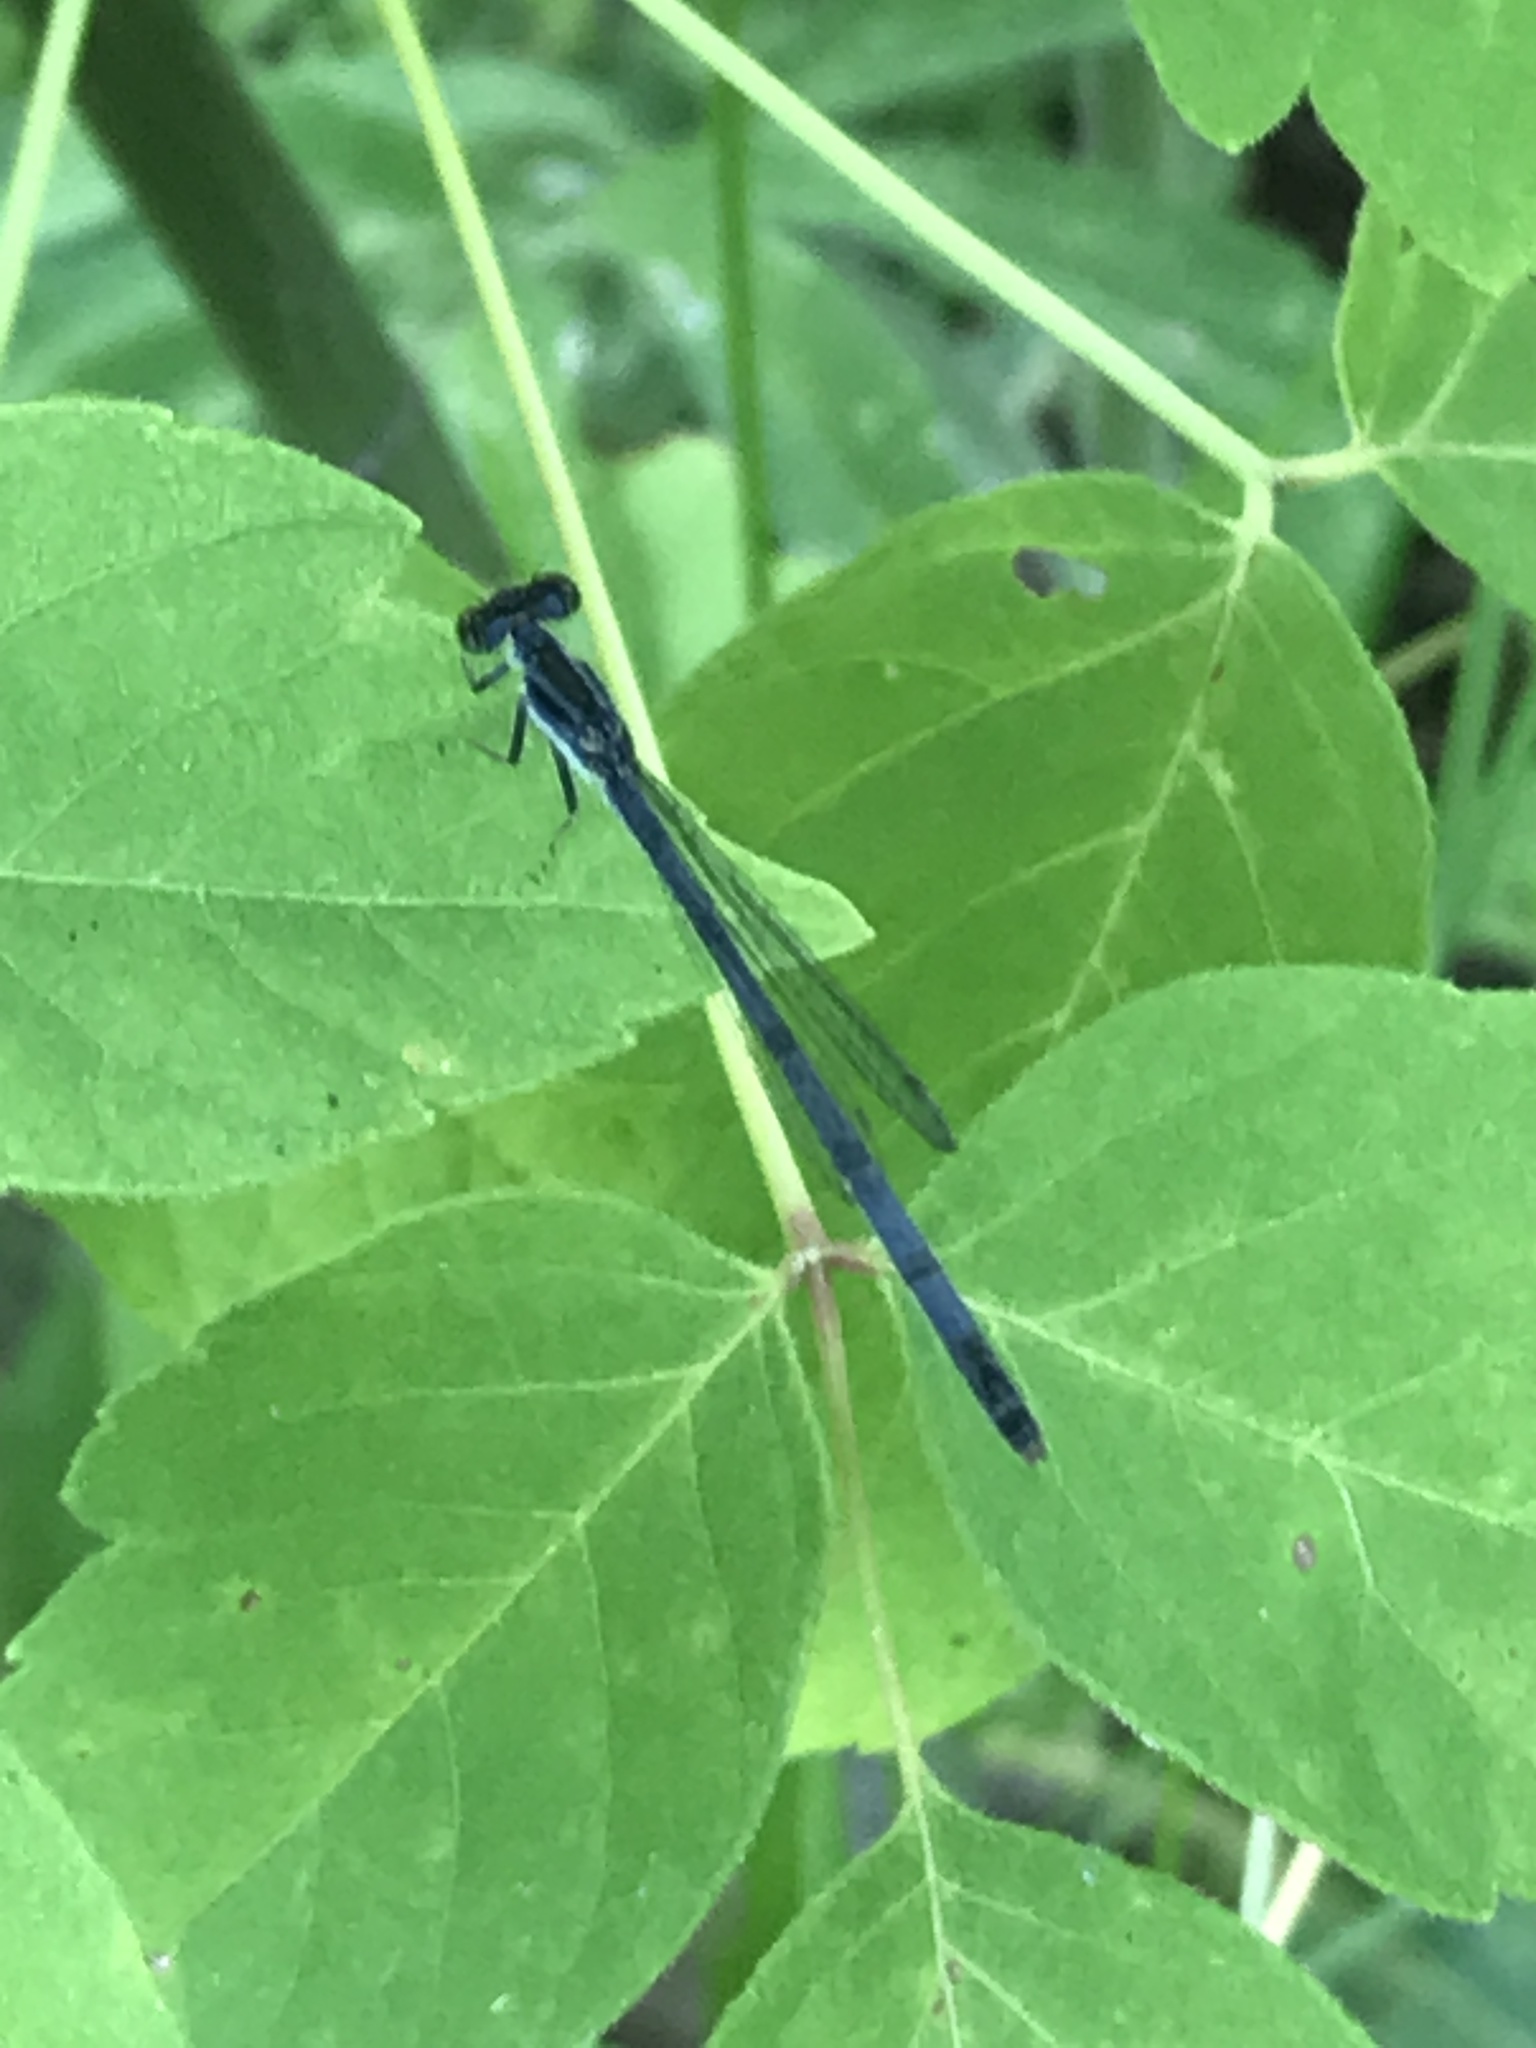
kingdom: Animalia
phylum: Arthropoda
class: Insecta
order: Odonata
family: Coenagrionidae
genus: Ischnura
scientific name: Ischnura verticalis
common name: Eastern forktail
